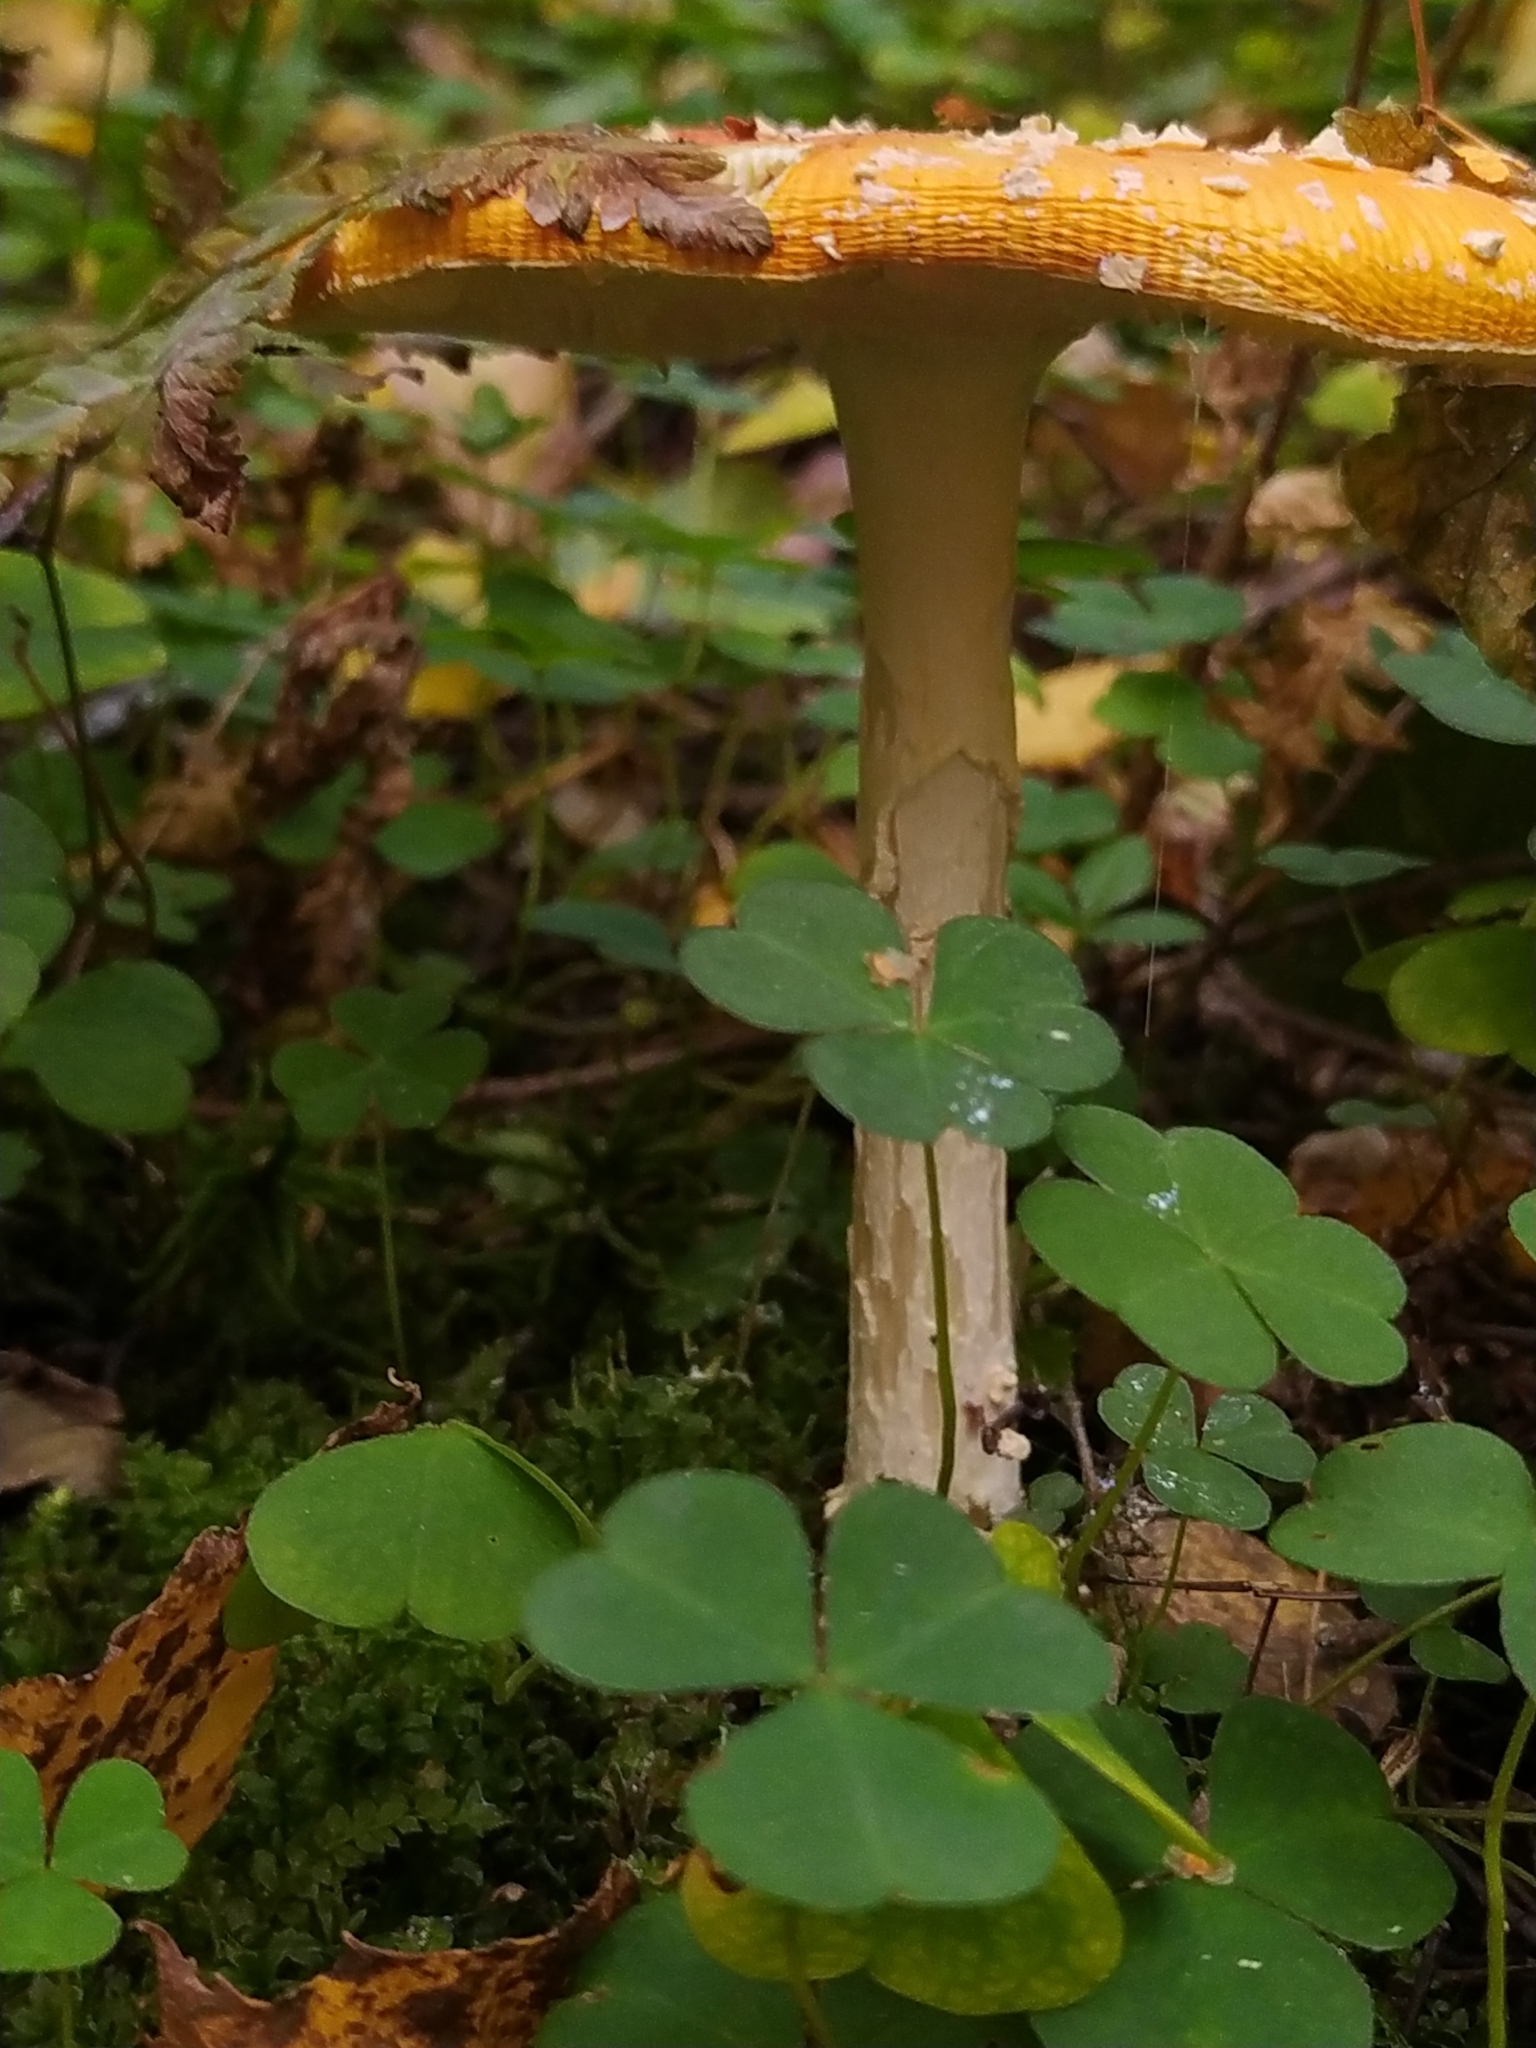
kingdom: Fungi
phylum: Basidiomycota
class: Agaricomycetes
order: Agaricales
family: Amanitaceae
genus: Amanita
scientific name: Amanita muscaria
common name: Fly agaric
